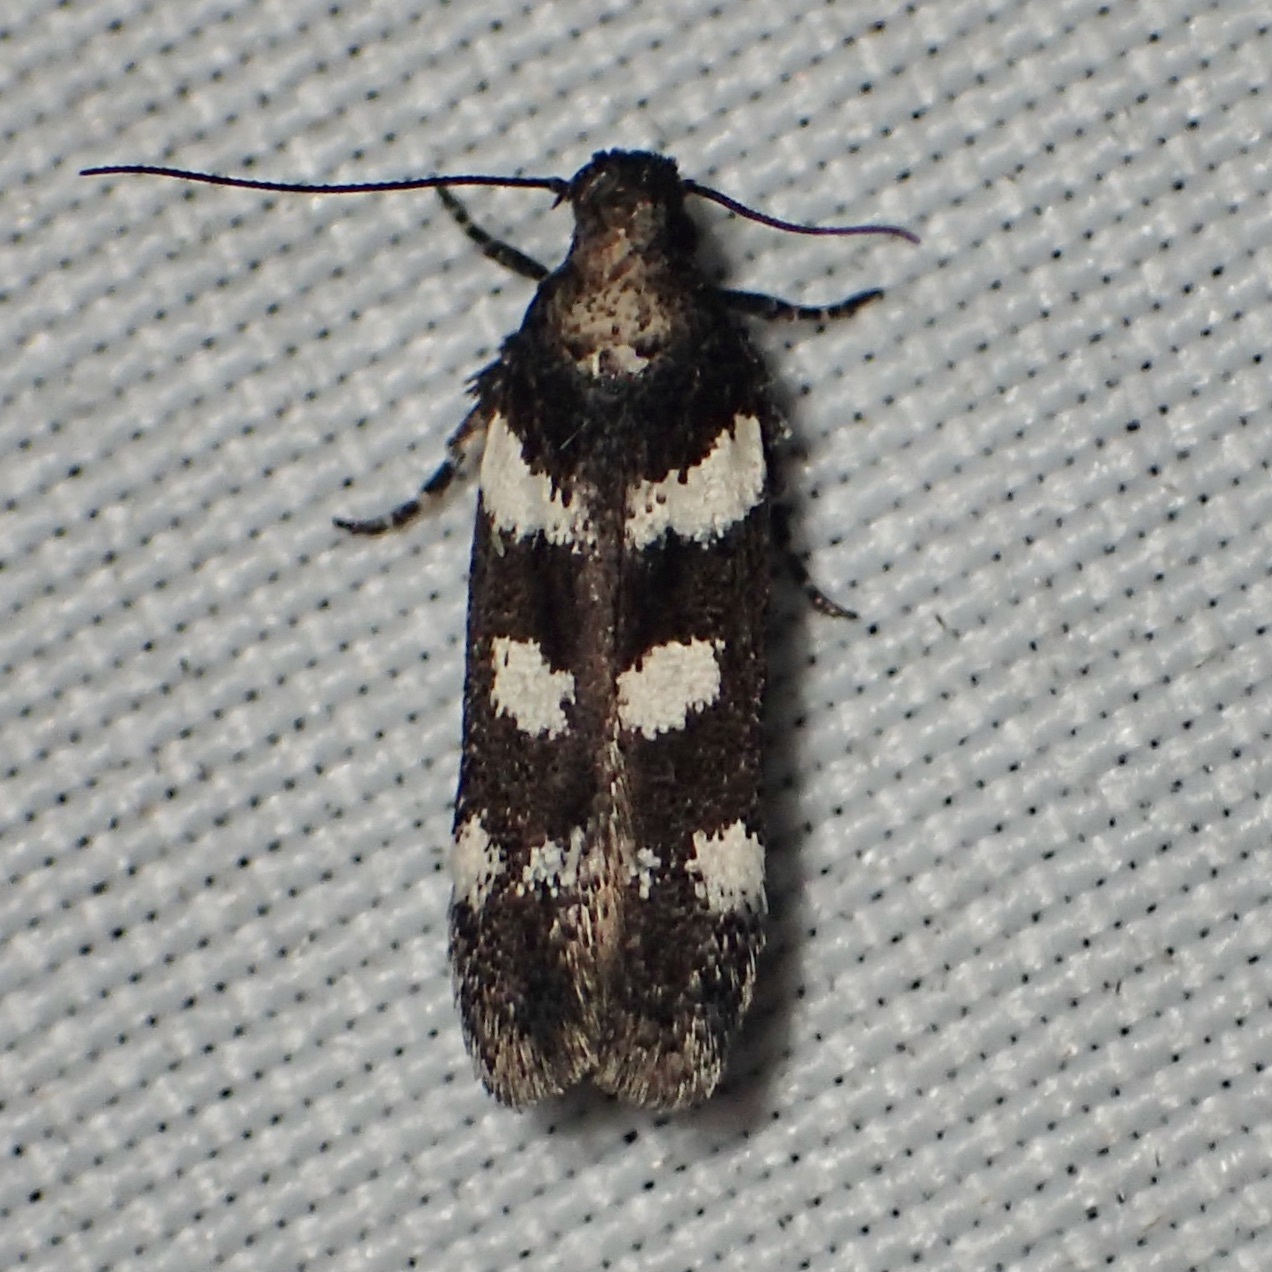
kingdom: Animalia
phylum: Arthropoda
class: Insecta
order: Lepidoptera
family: Gelechiidae
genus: Filatima
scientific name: Filatima arizonella
